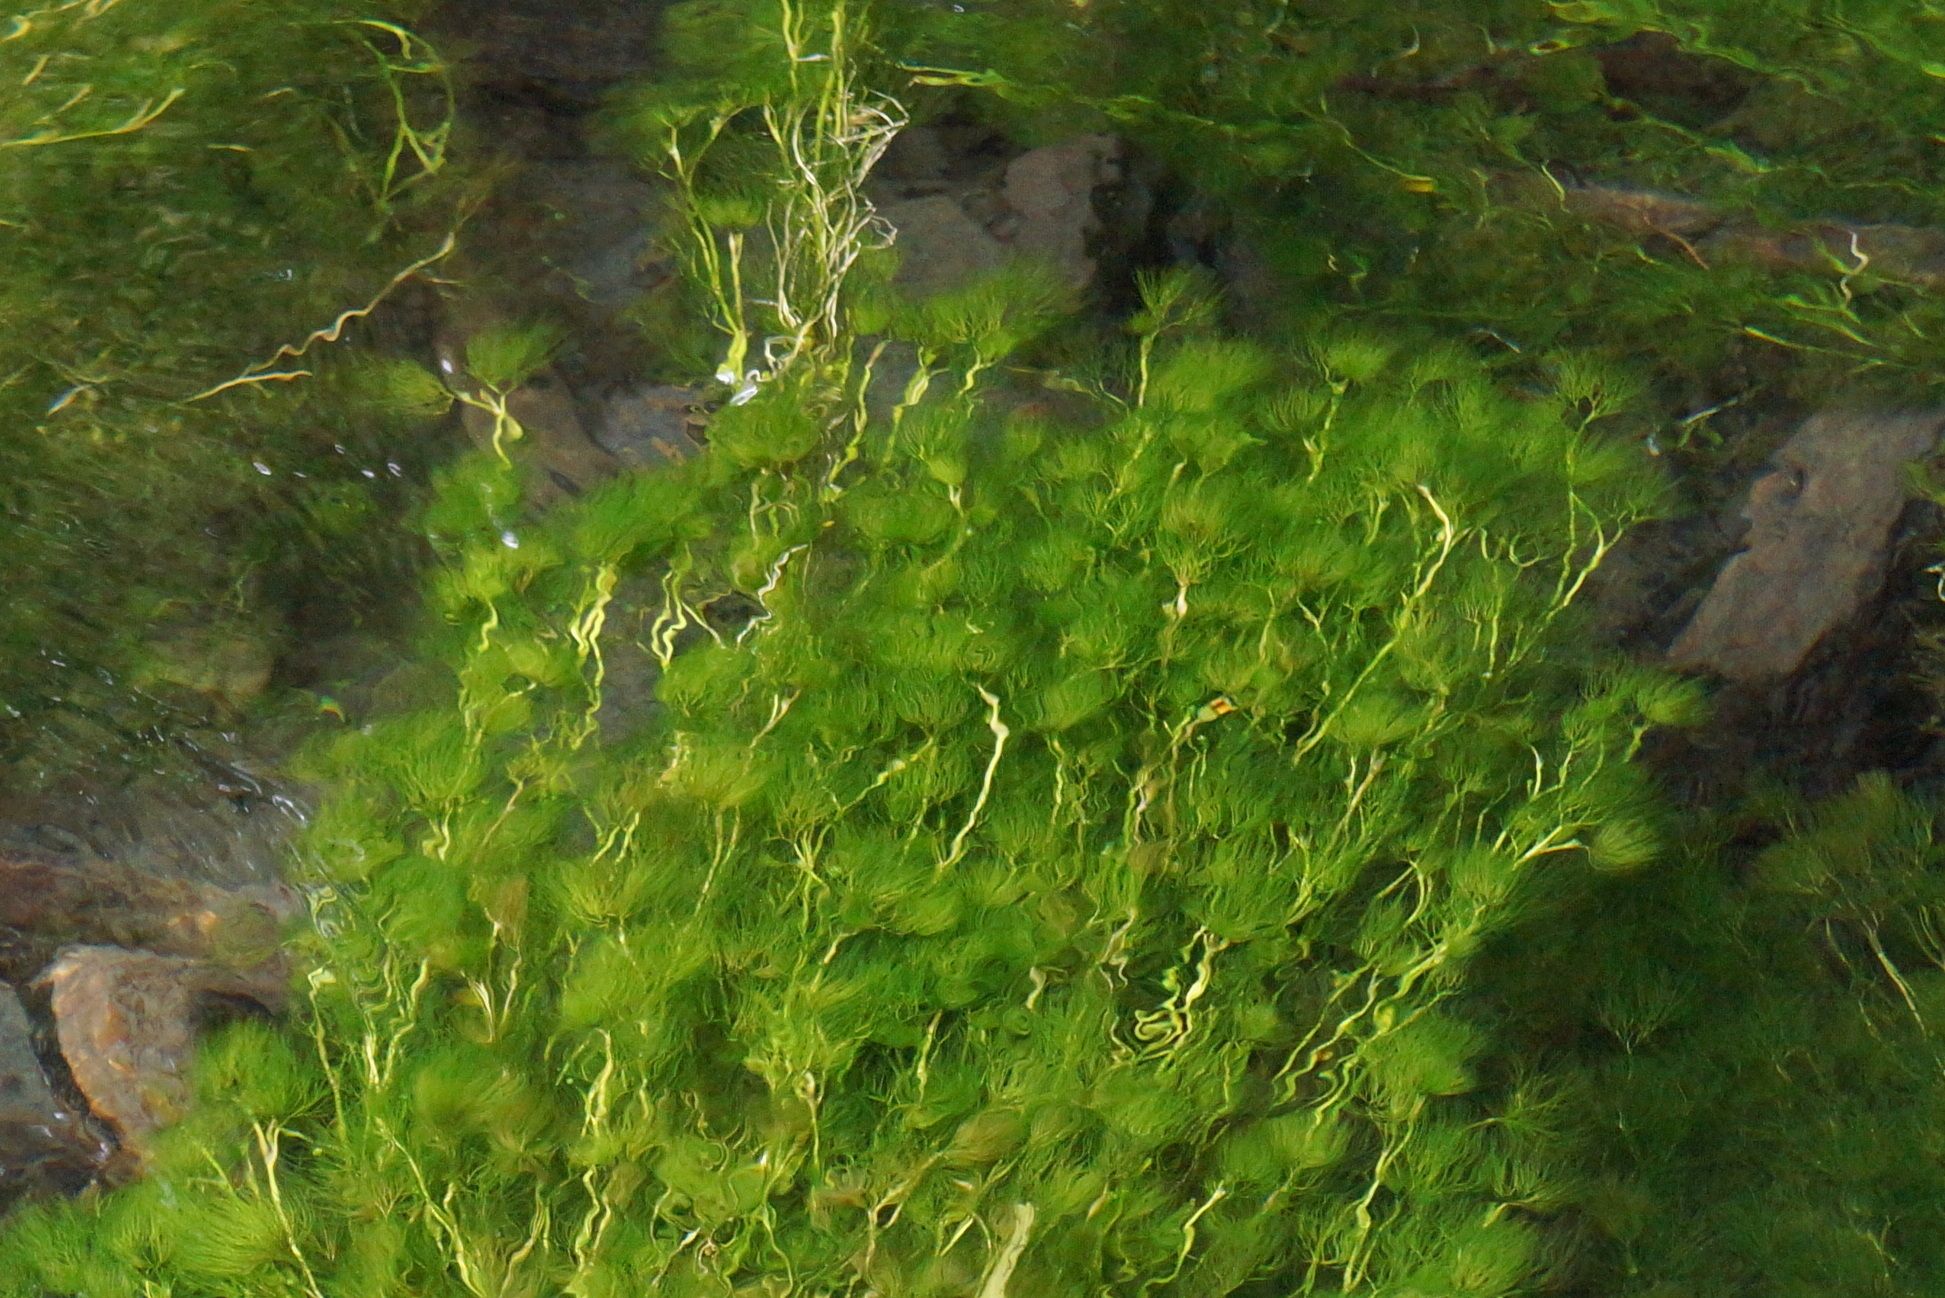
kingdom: Plantae
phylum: Tracheophyta
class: Magnoliopsida
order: Ranunculales
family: Ranunculaceae
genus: Ranunculus
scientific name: Ranunculus trichophyllus
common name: Thread-leaved water-crowfoot
